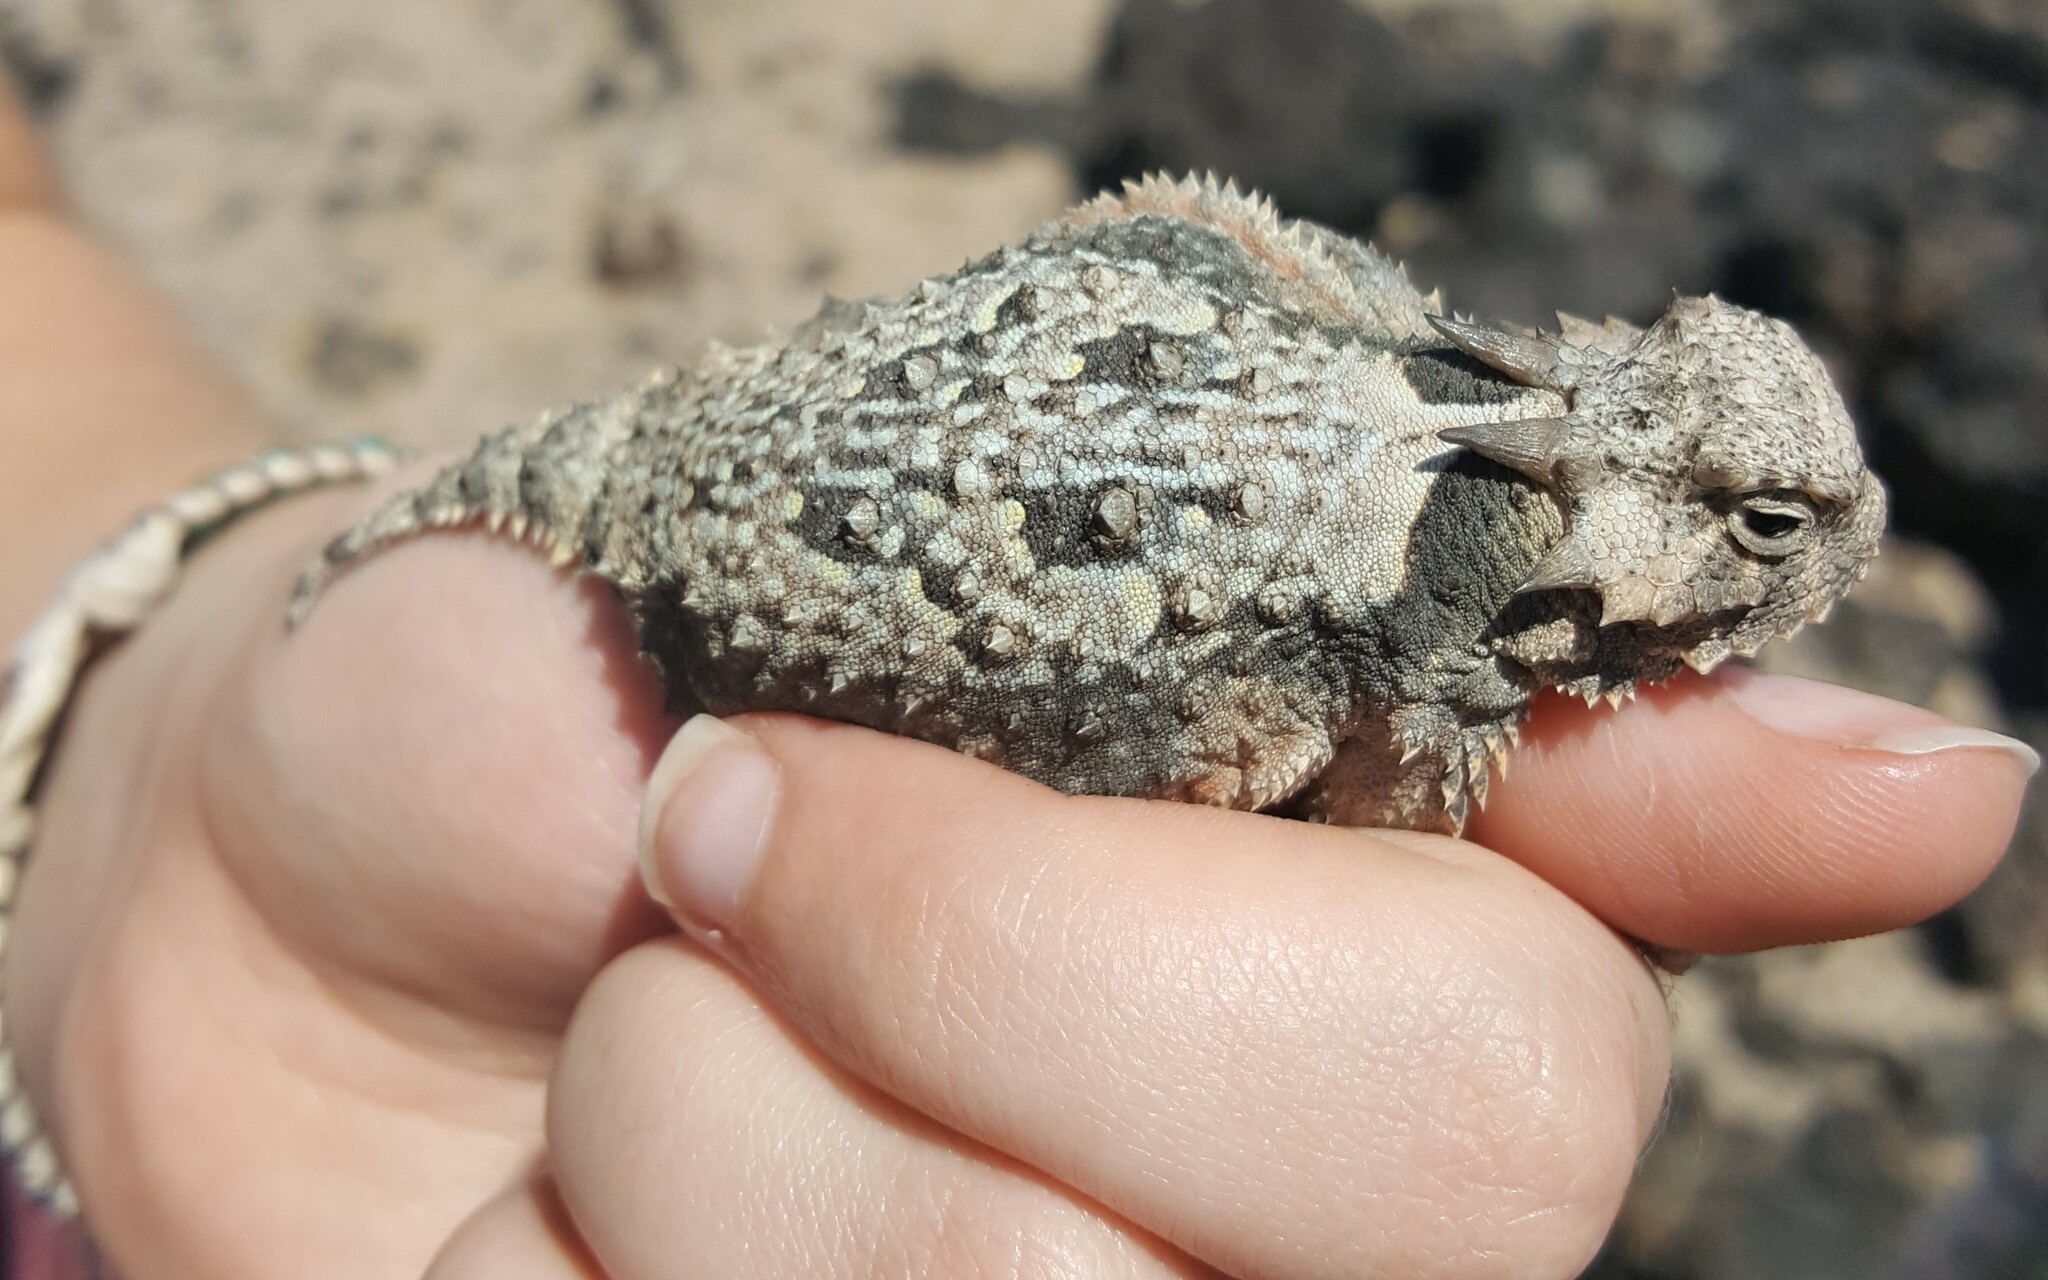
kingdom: Animalia
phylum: Chordata
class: Squamata
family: Phrynosomatidae
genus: Phrynosoma
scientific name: Phrynosoma platyrhinos
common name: Desert horned lizard
